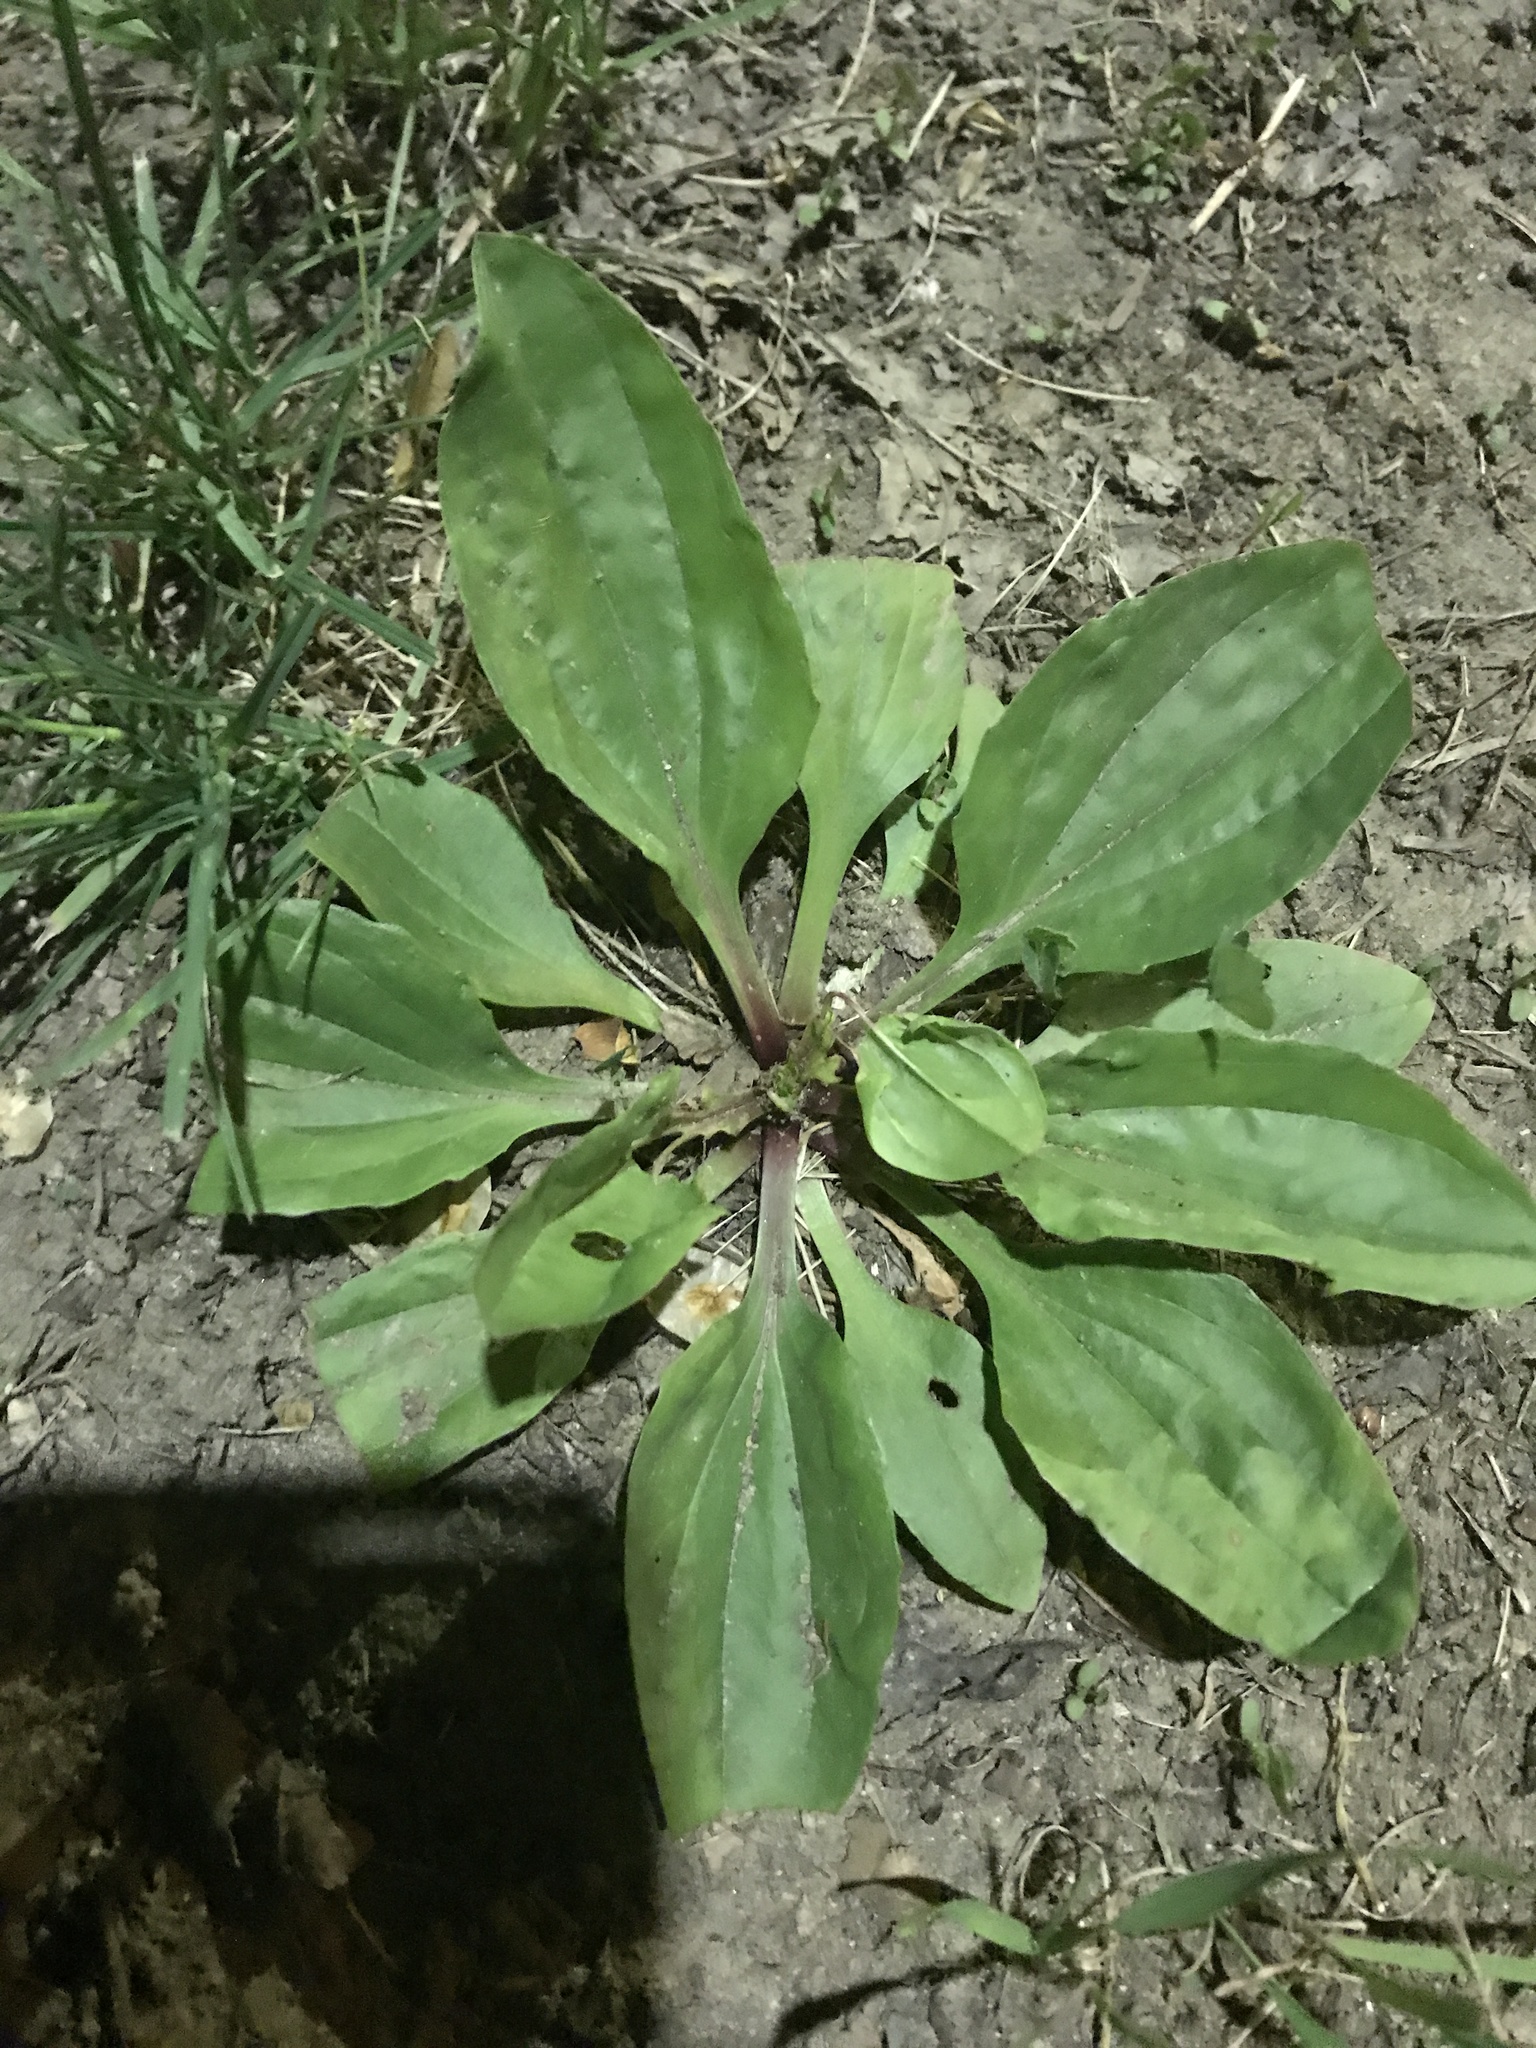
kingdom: Plantae
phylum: Tracheophyta
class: Magnoliopsida
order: Lamiales
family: Plantaginaceae
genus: Plantago
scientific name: Plantago rugelii
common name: American plantain
